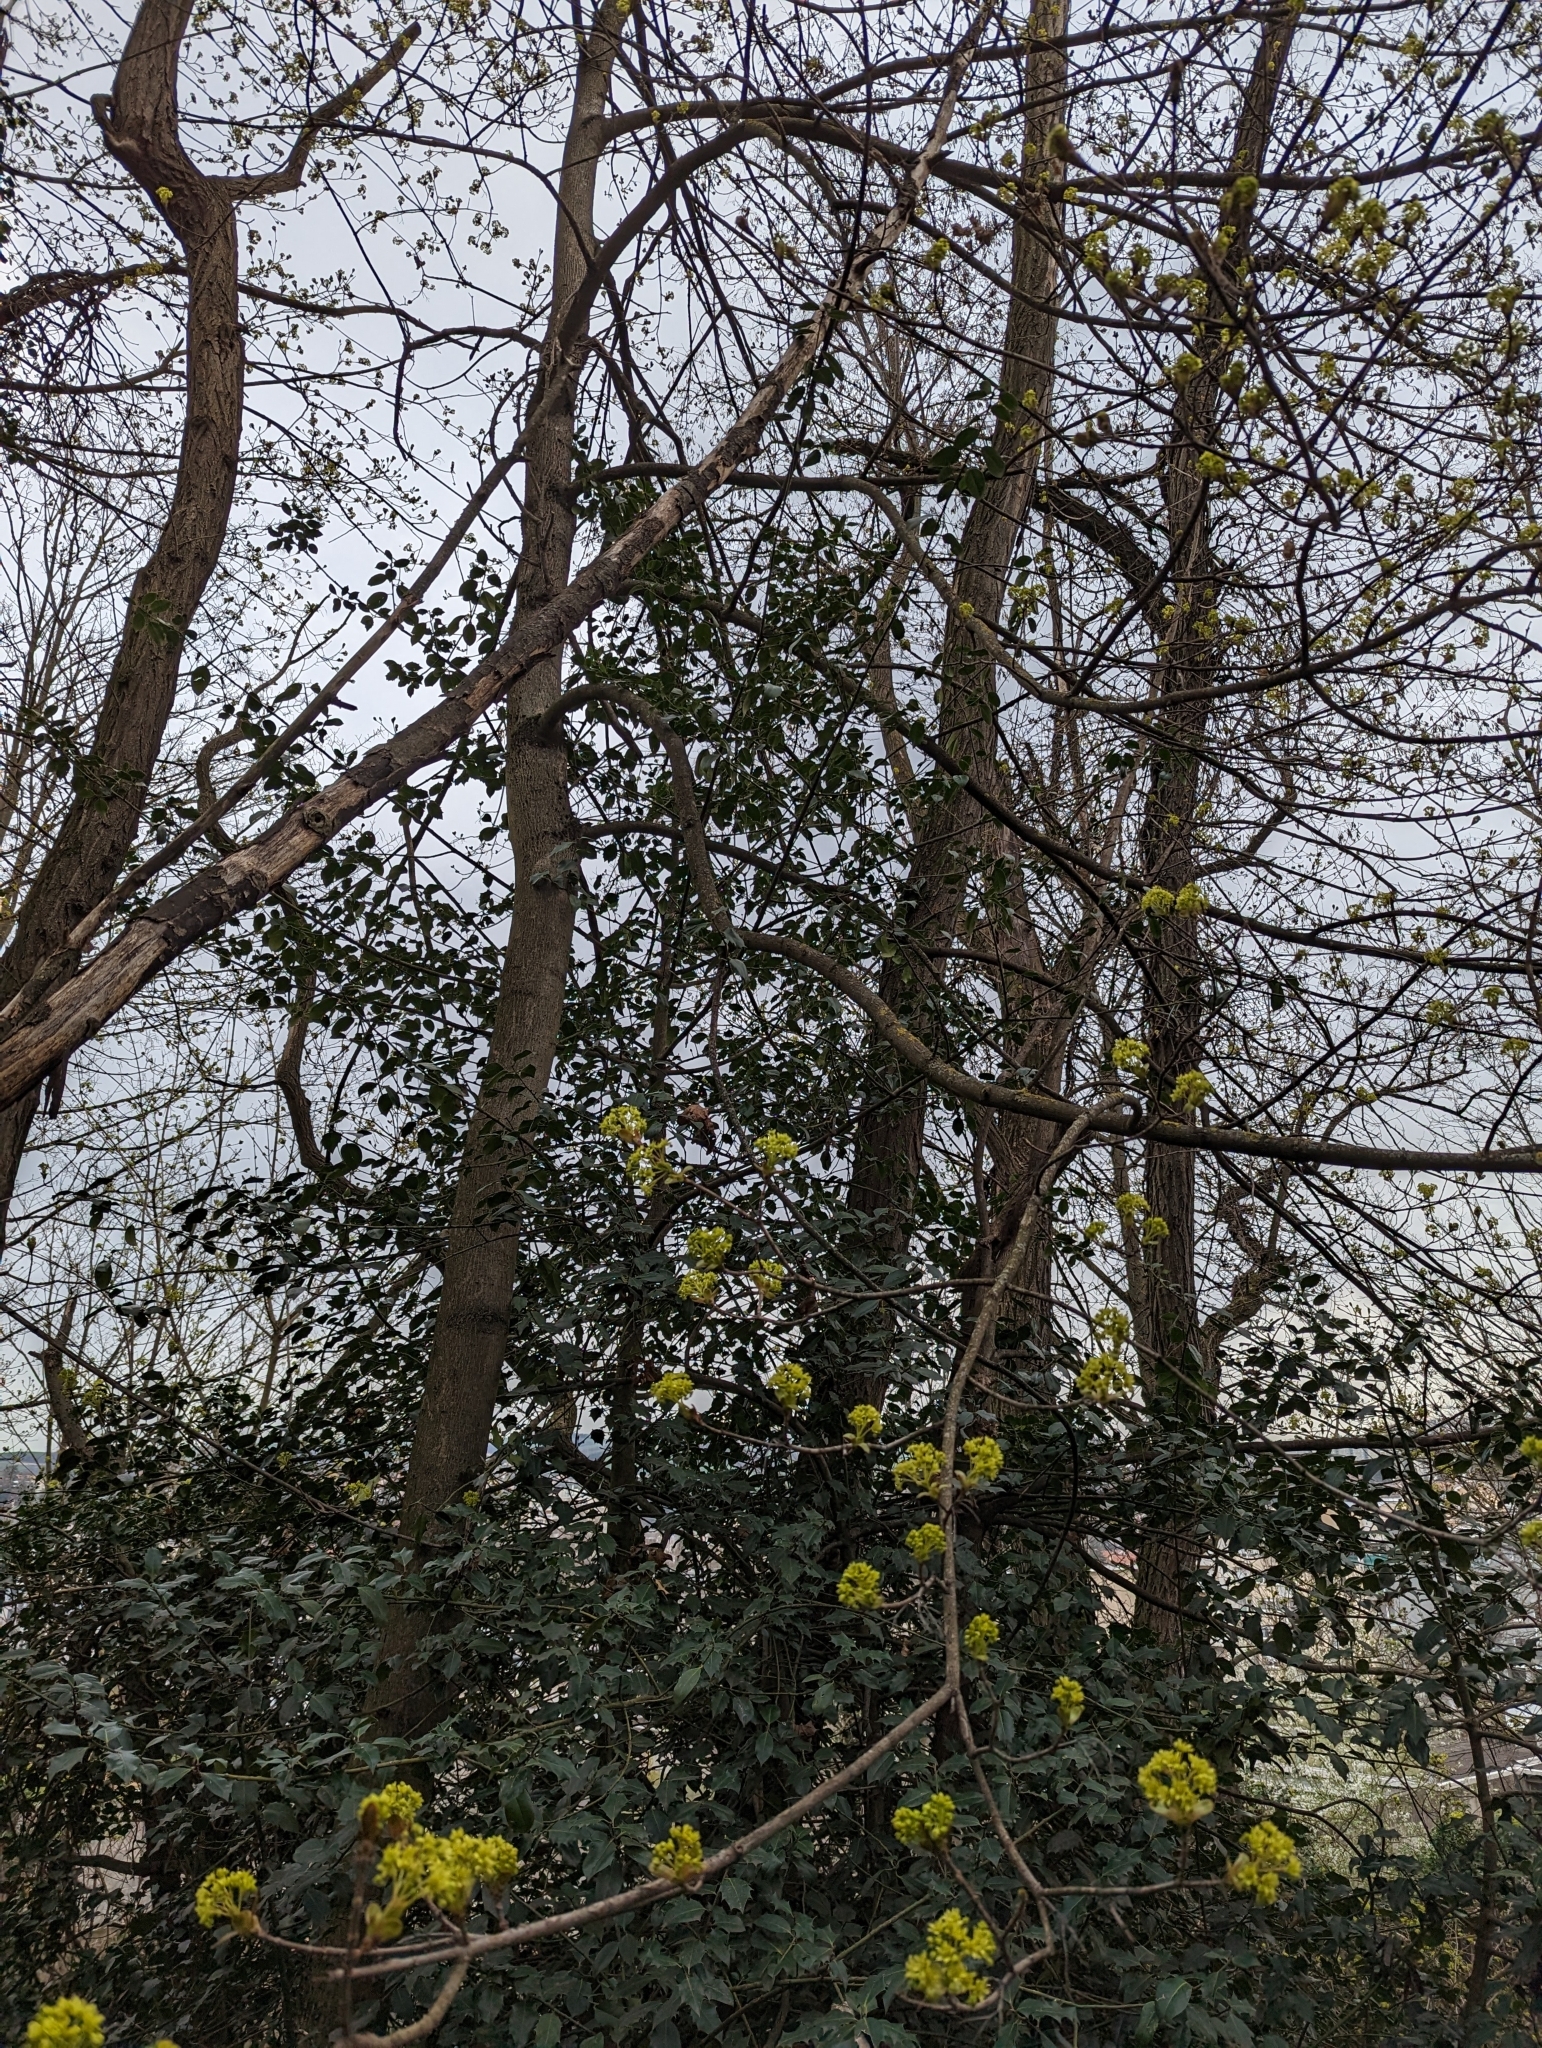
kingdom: Plantae
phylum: Tracheophyta
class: Magnoliopsida
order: Sapindales
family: Sapindaceae
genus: Acer
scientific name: Acer platanoides
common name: Norway maple
